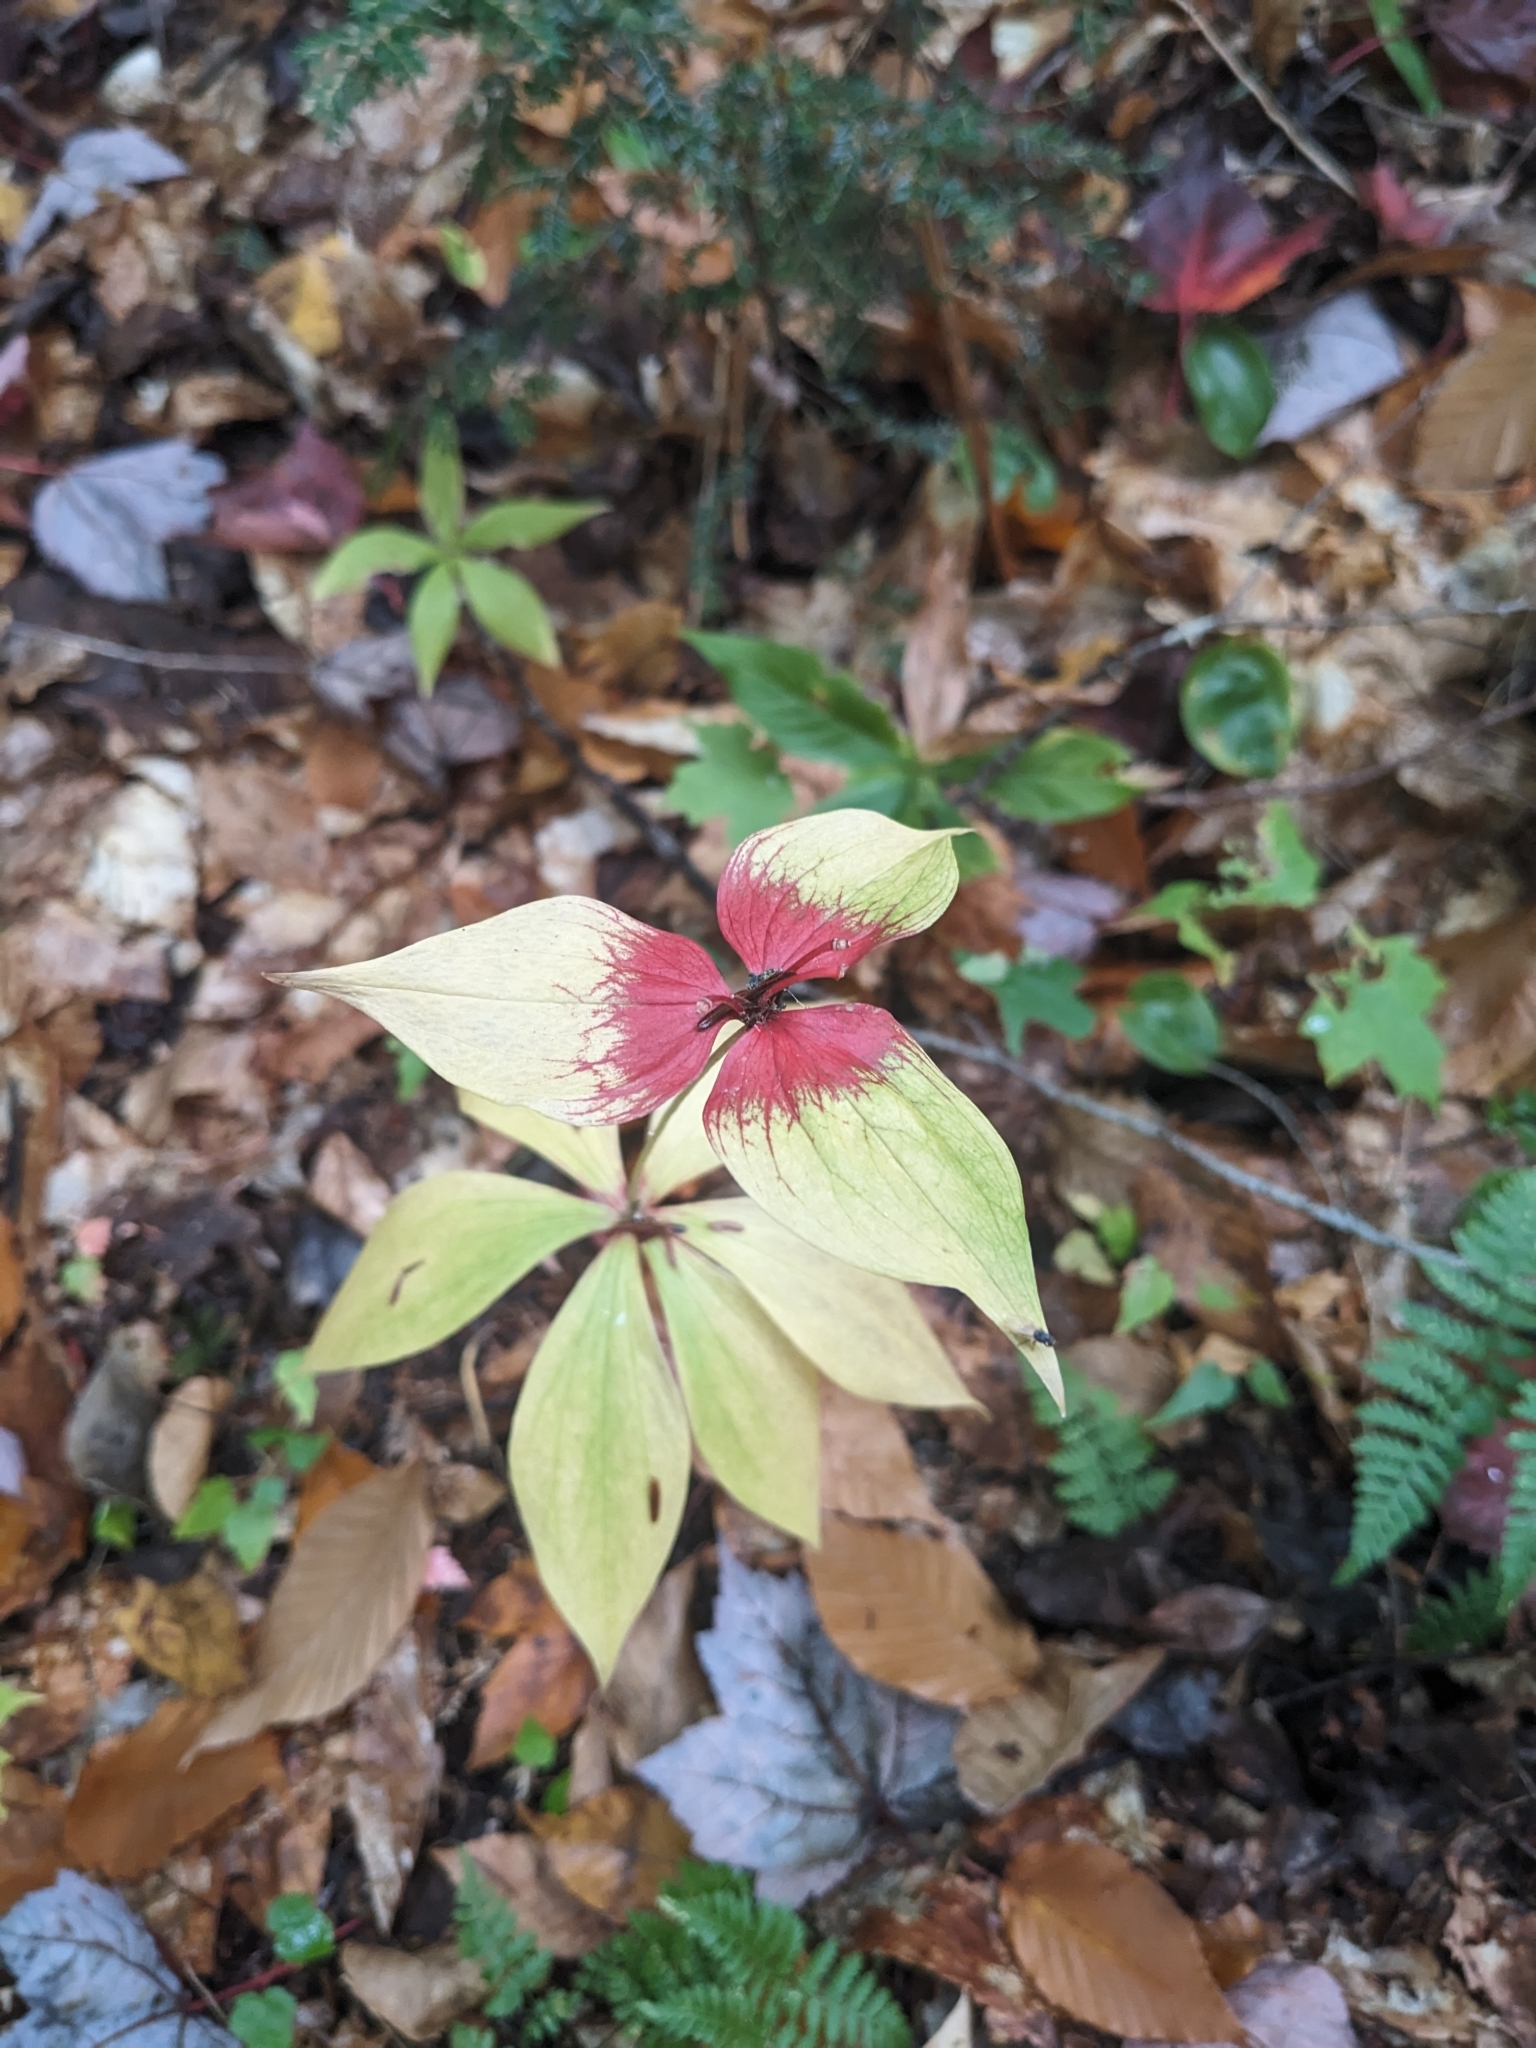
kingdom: Plantae
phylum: Tracheophyta
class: Liliopsida
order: Liliales
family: Liliaceae
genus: Medeola
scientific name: Medeola virginiana
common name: Indian cucumber-root
